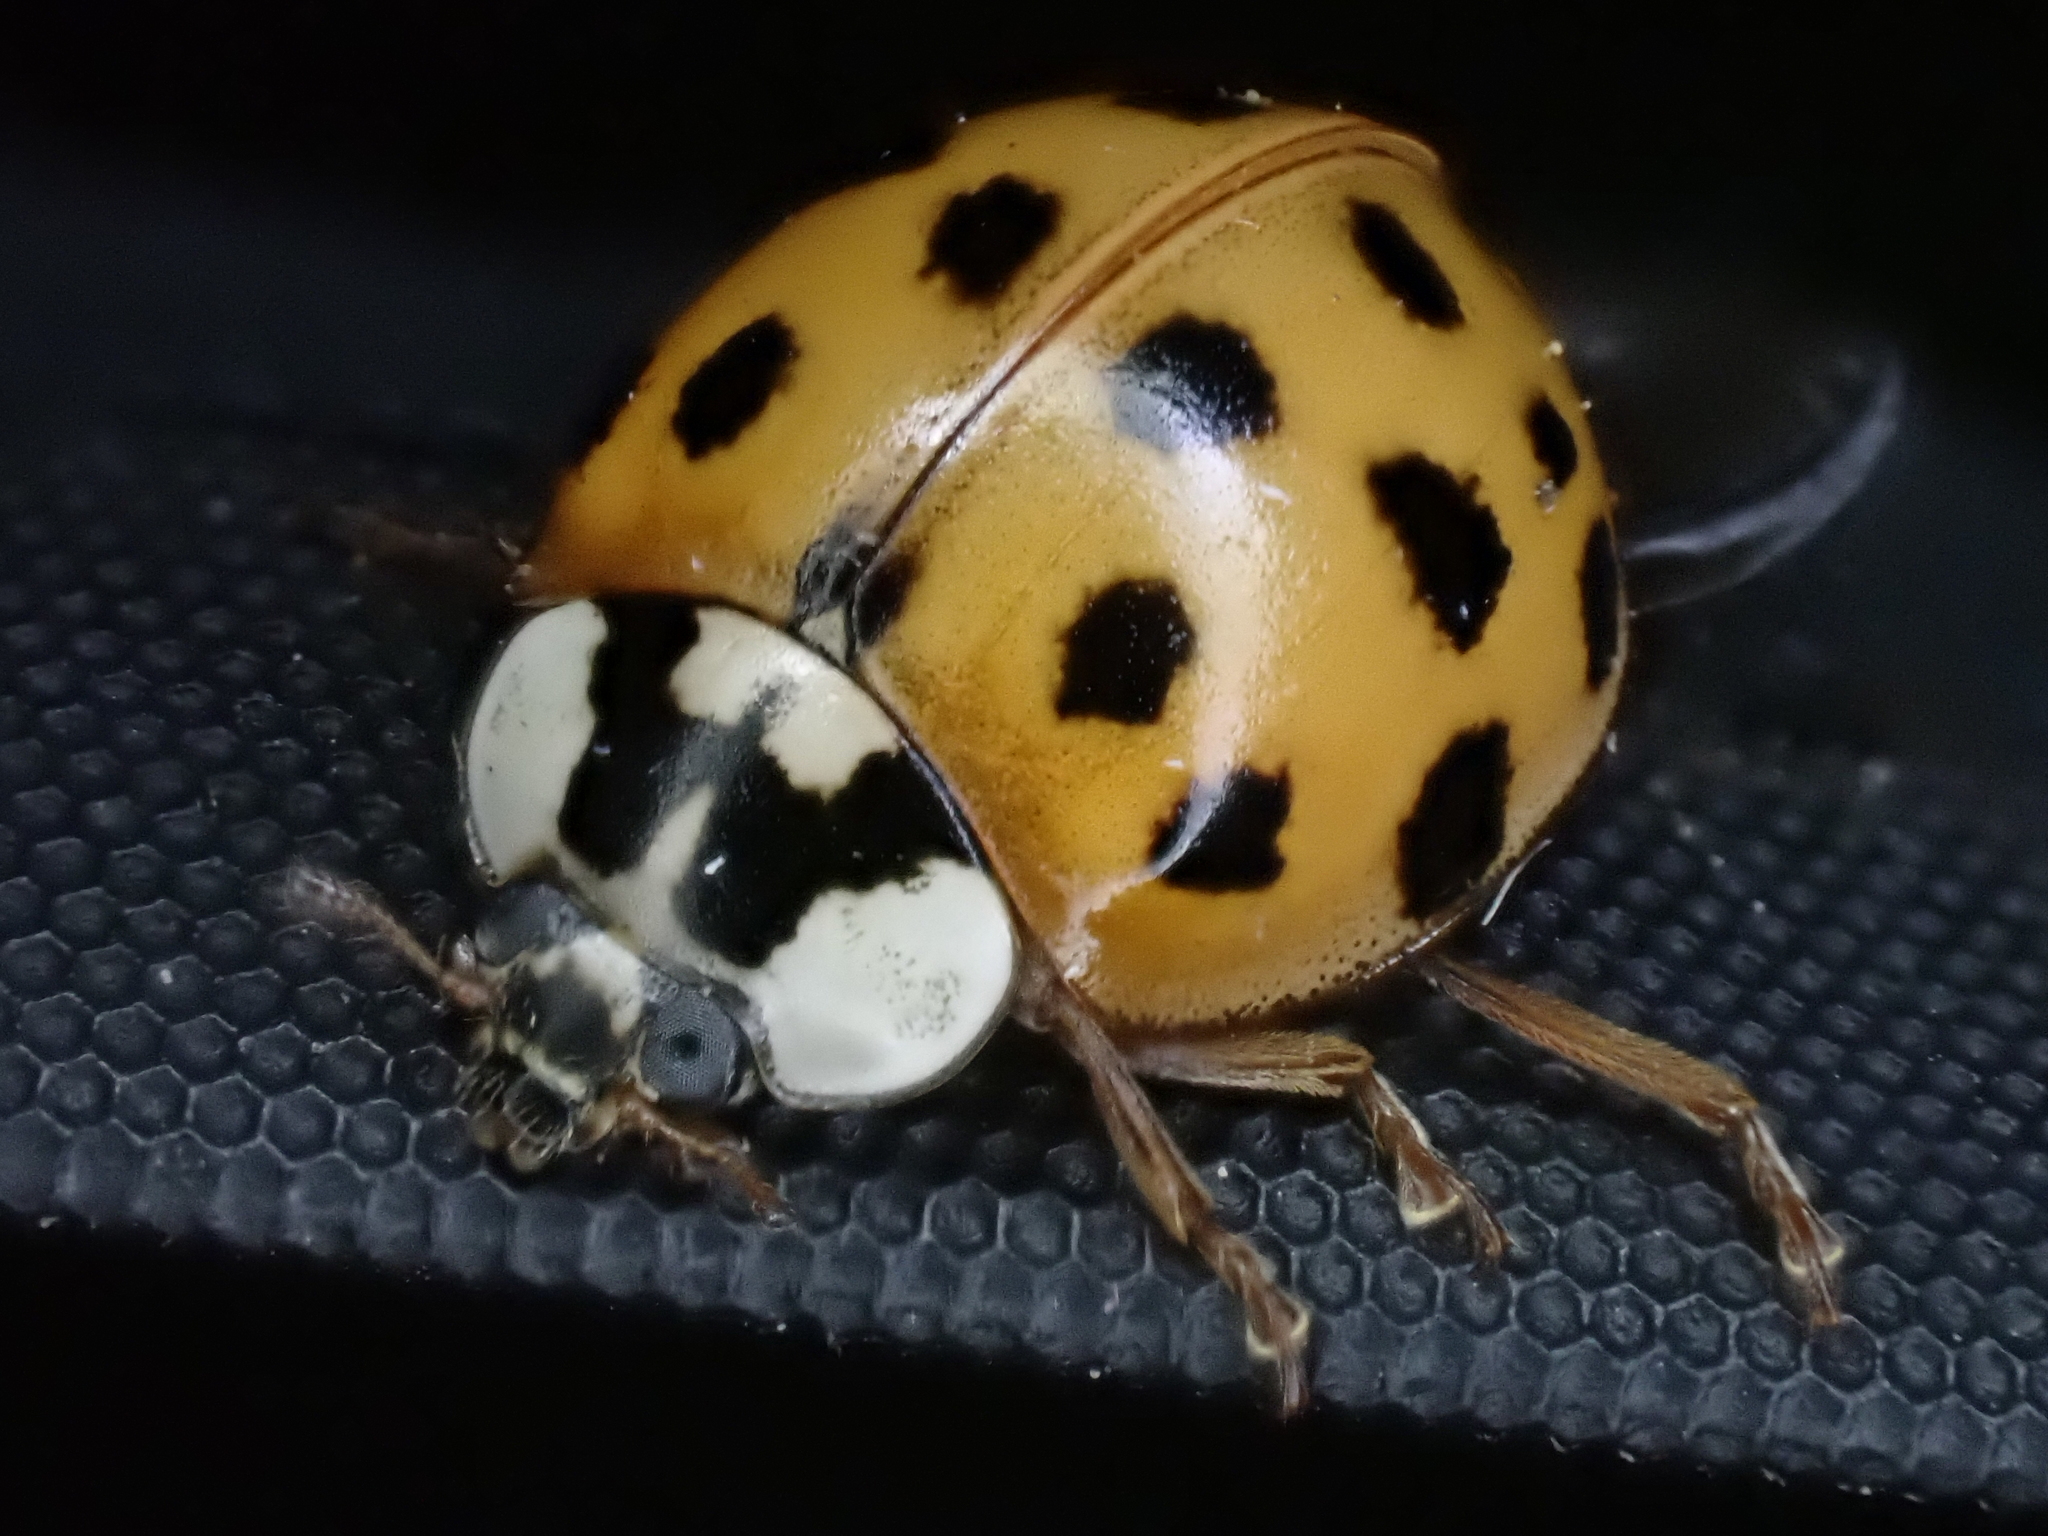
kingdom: Animalia
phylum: Arthropoda
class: Insecta
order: Coleoptera
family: Coccinellidae
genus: Harmonia
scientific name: Harmonia axyridis
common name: Harlequin ladybird
